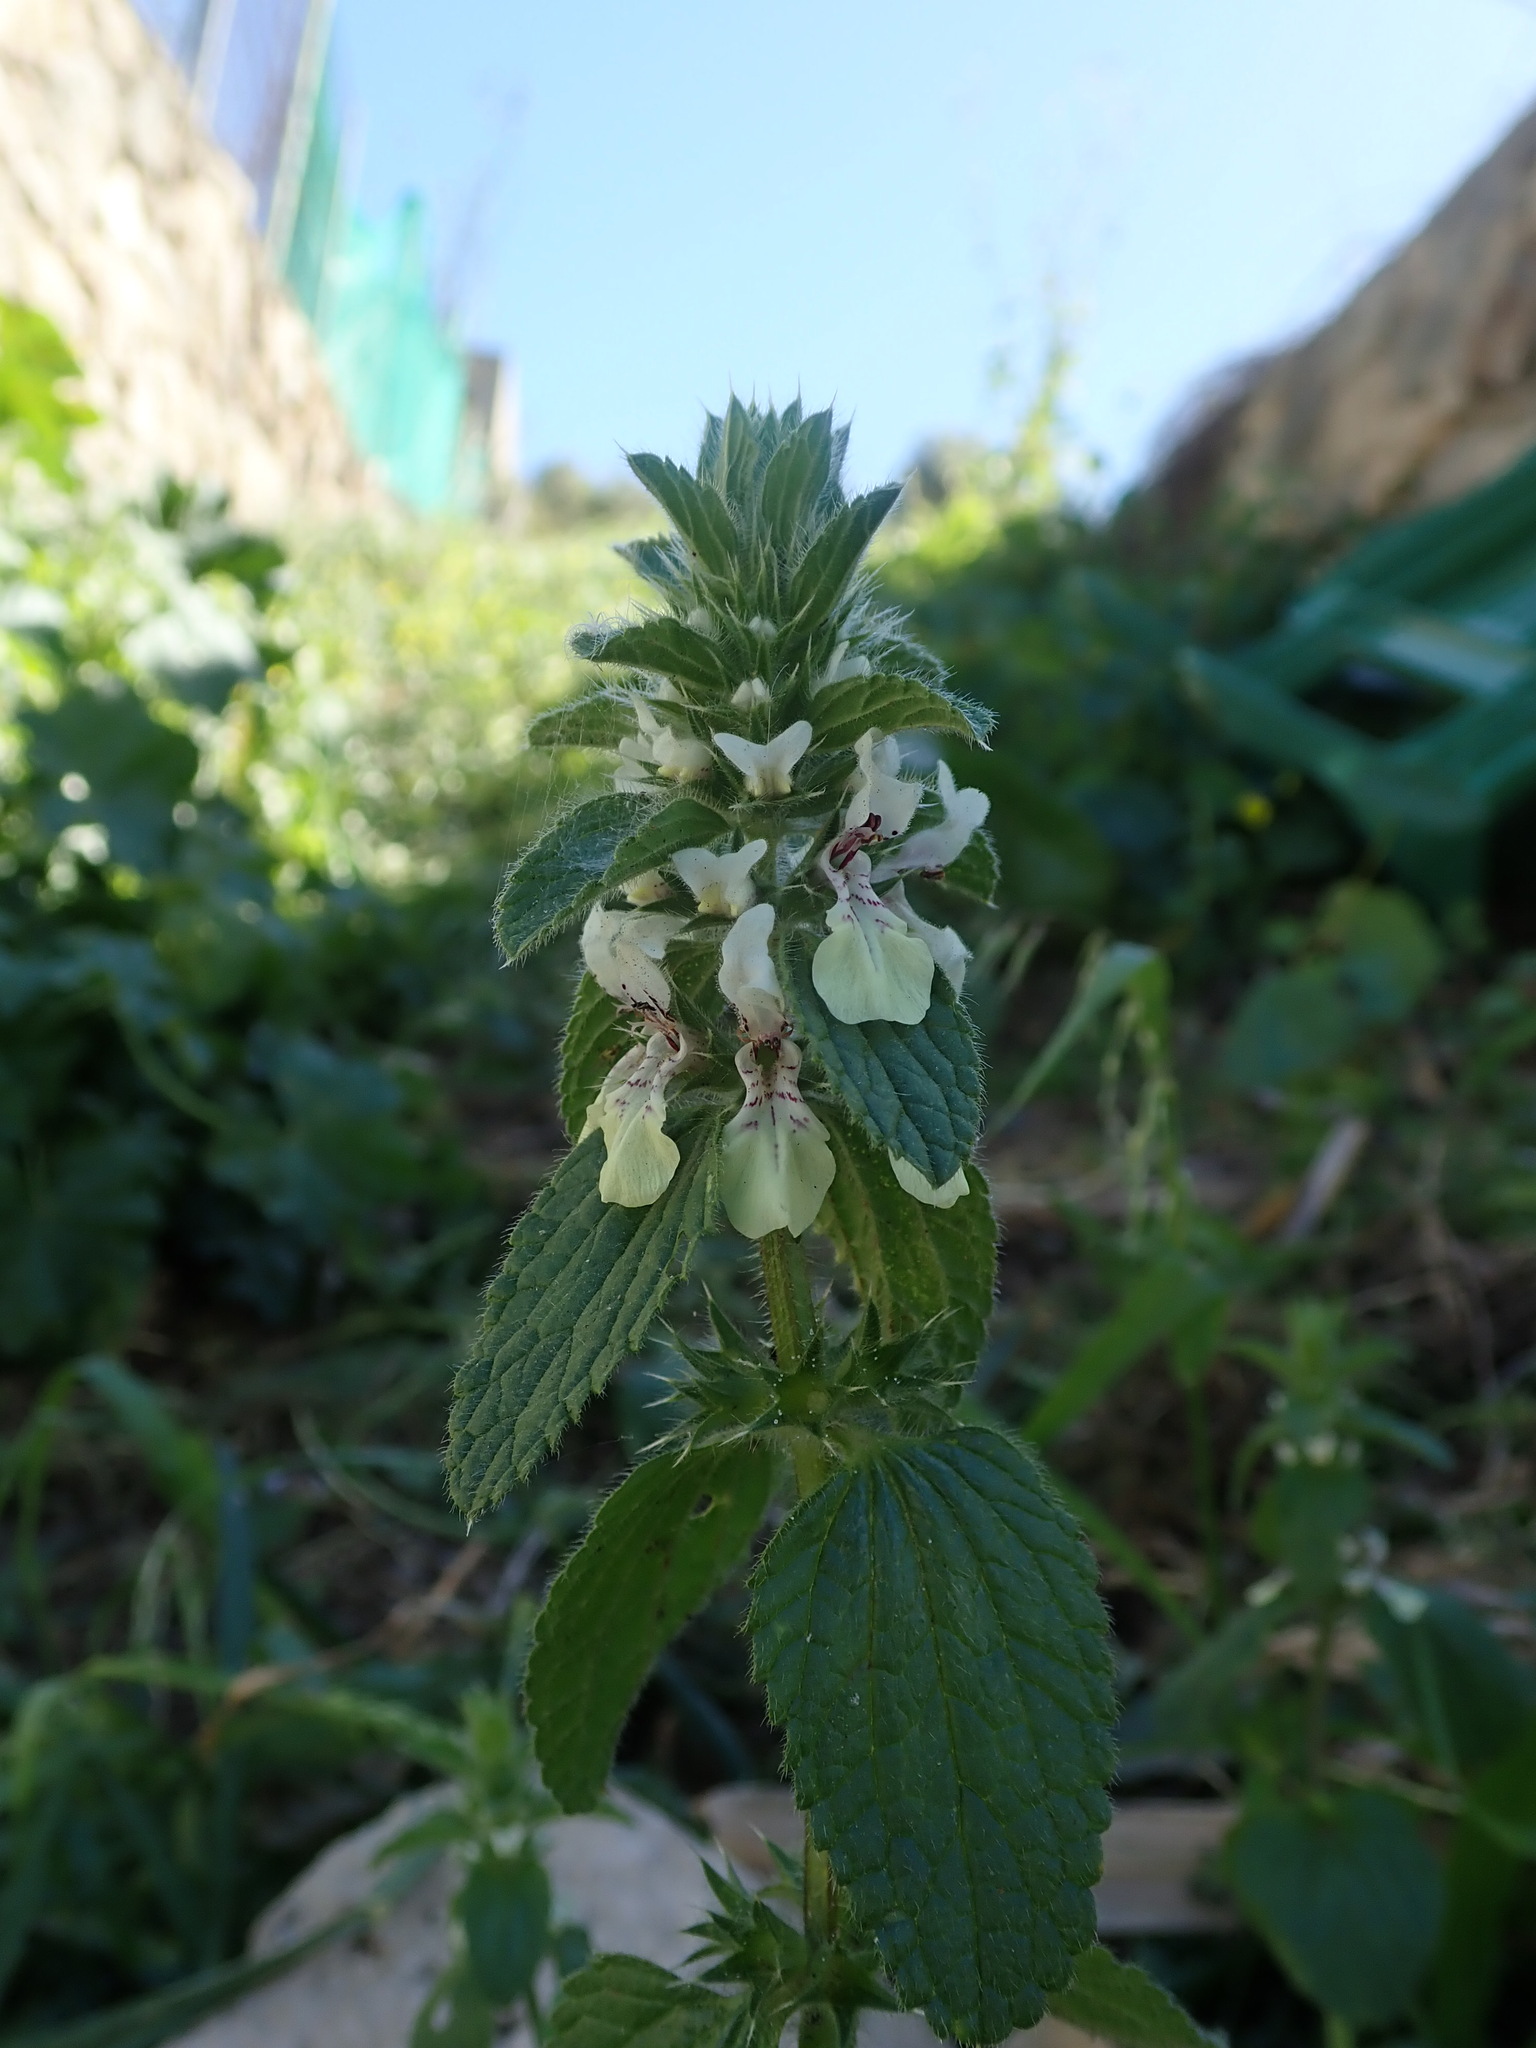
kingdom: Plantae
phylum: Tracheophyta
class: Magnoliopsida
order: Lamiales
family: Lamiaceae
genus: Stachys
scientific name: Stachys ocymastrum
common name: Italian hedgenettle
